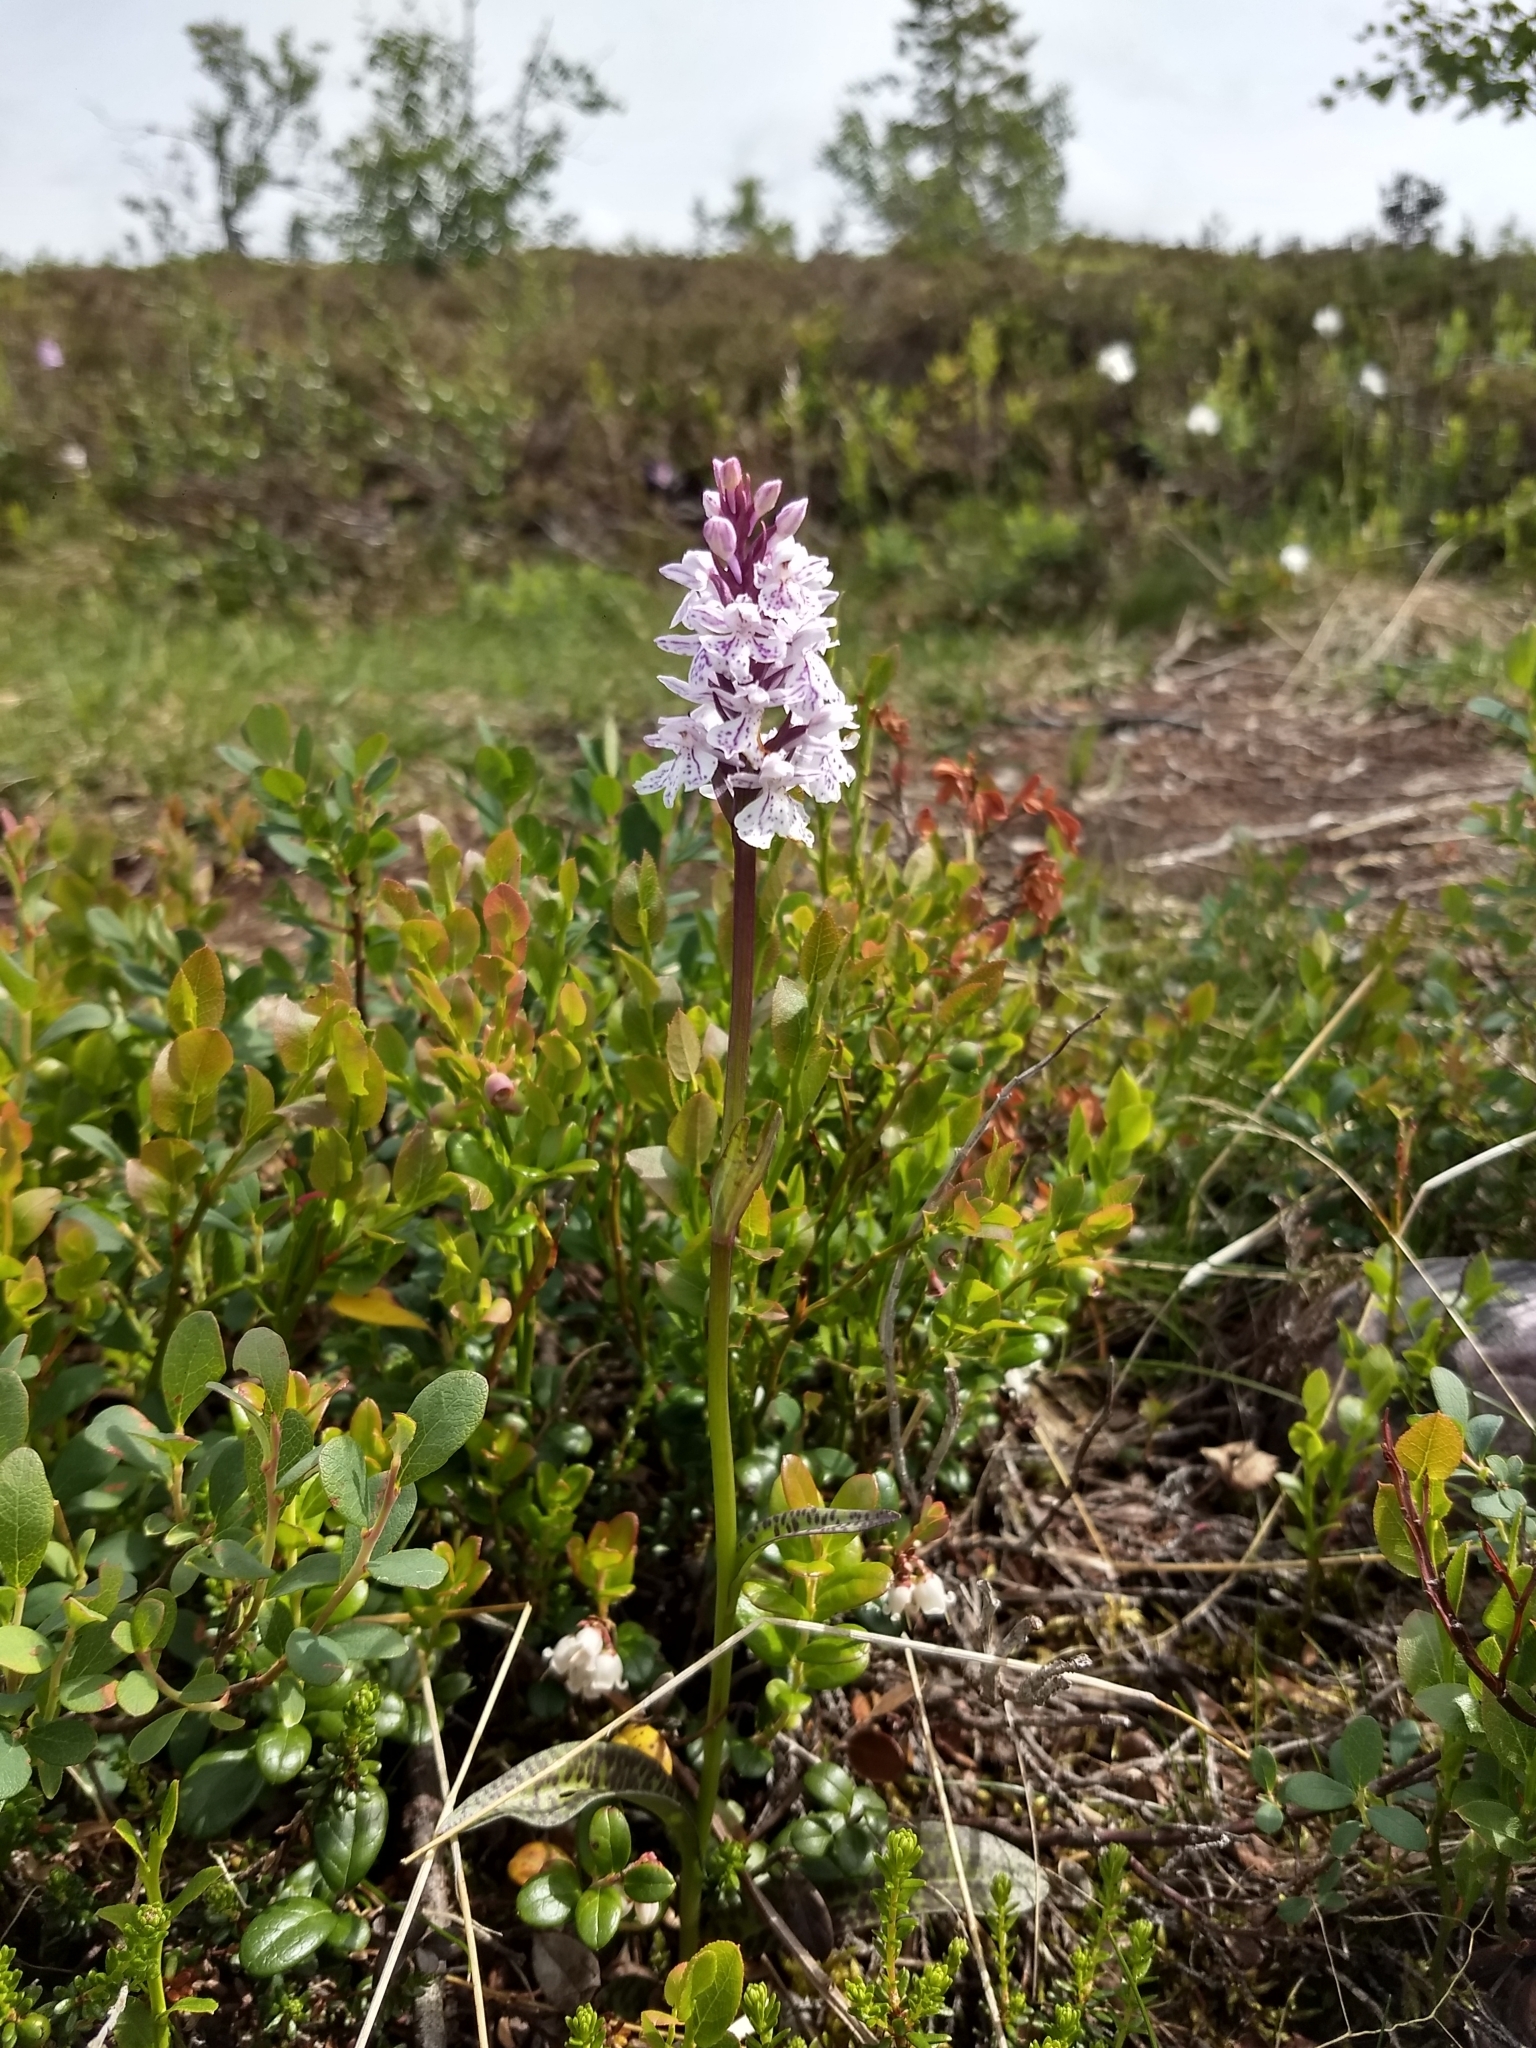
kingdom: Plantae
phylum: Tracheophyta
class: Liliopsida
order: Asparagales
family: Orchidaceae
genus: Dactylorhiza
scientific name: Dactylorhiza maculata
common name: Heath spotted-orchid
